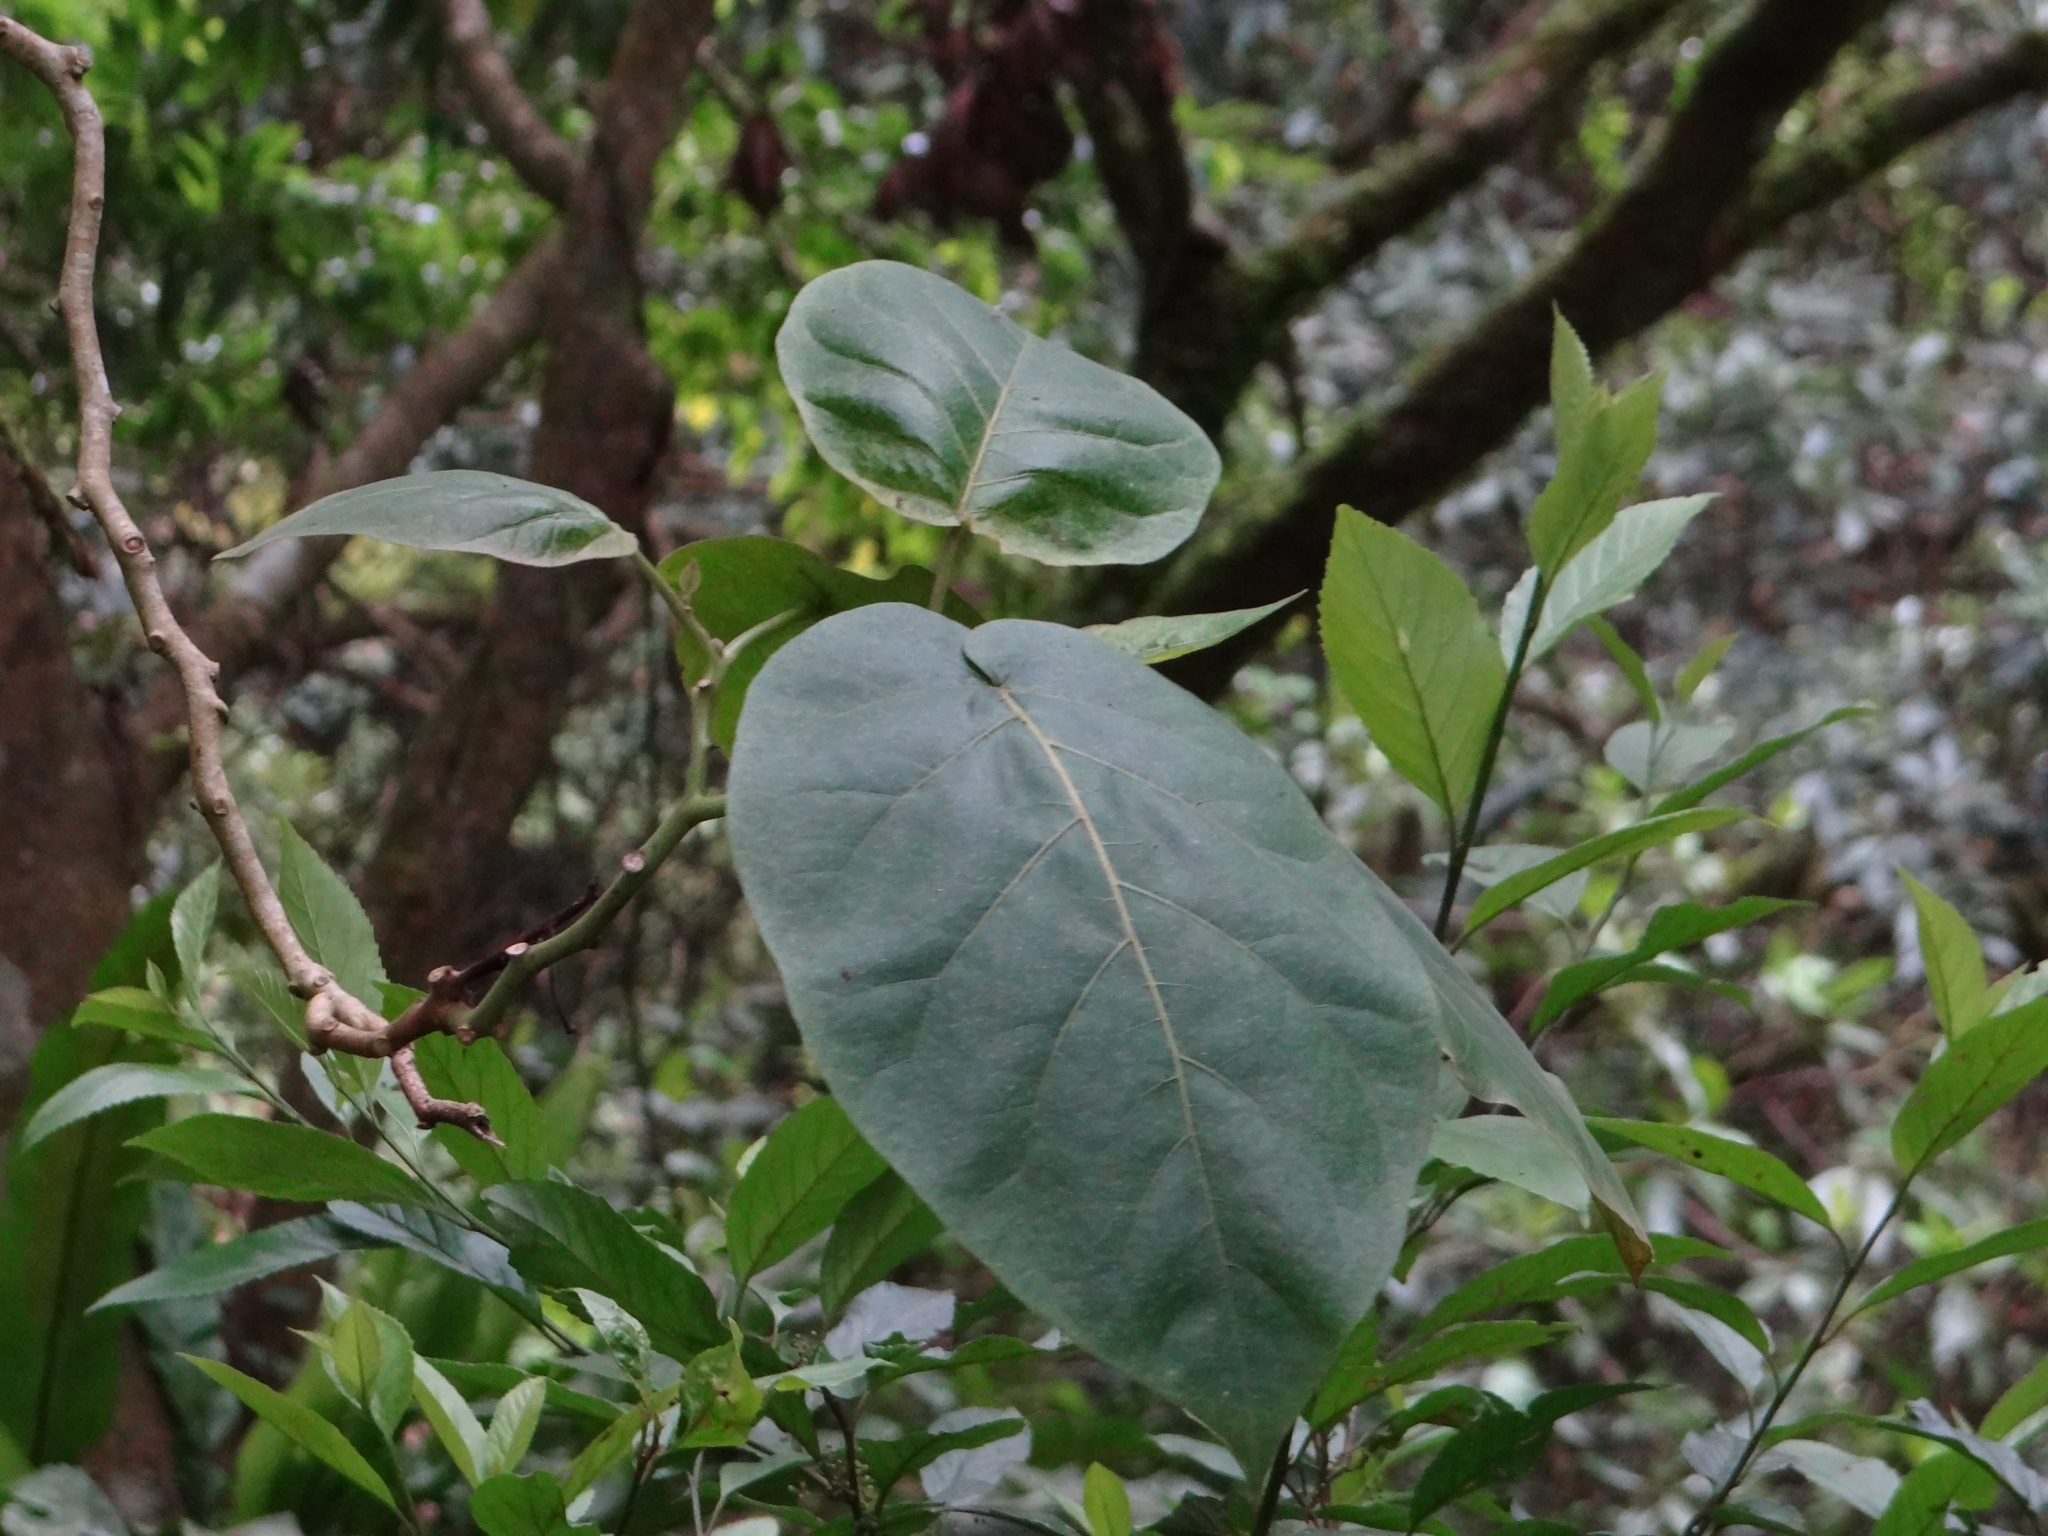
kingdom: Plantae
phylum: Tracheophyta
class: Magnoliopsida
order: Solanales
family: Solanaceae
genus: Solanum
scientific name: Solanum betaceum
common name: Tamarillo
